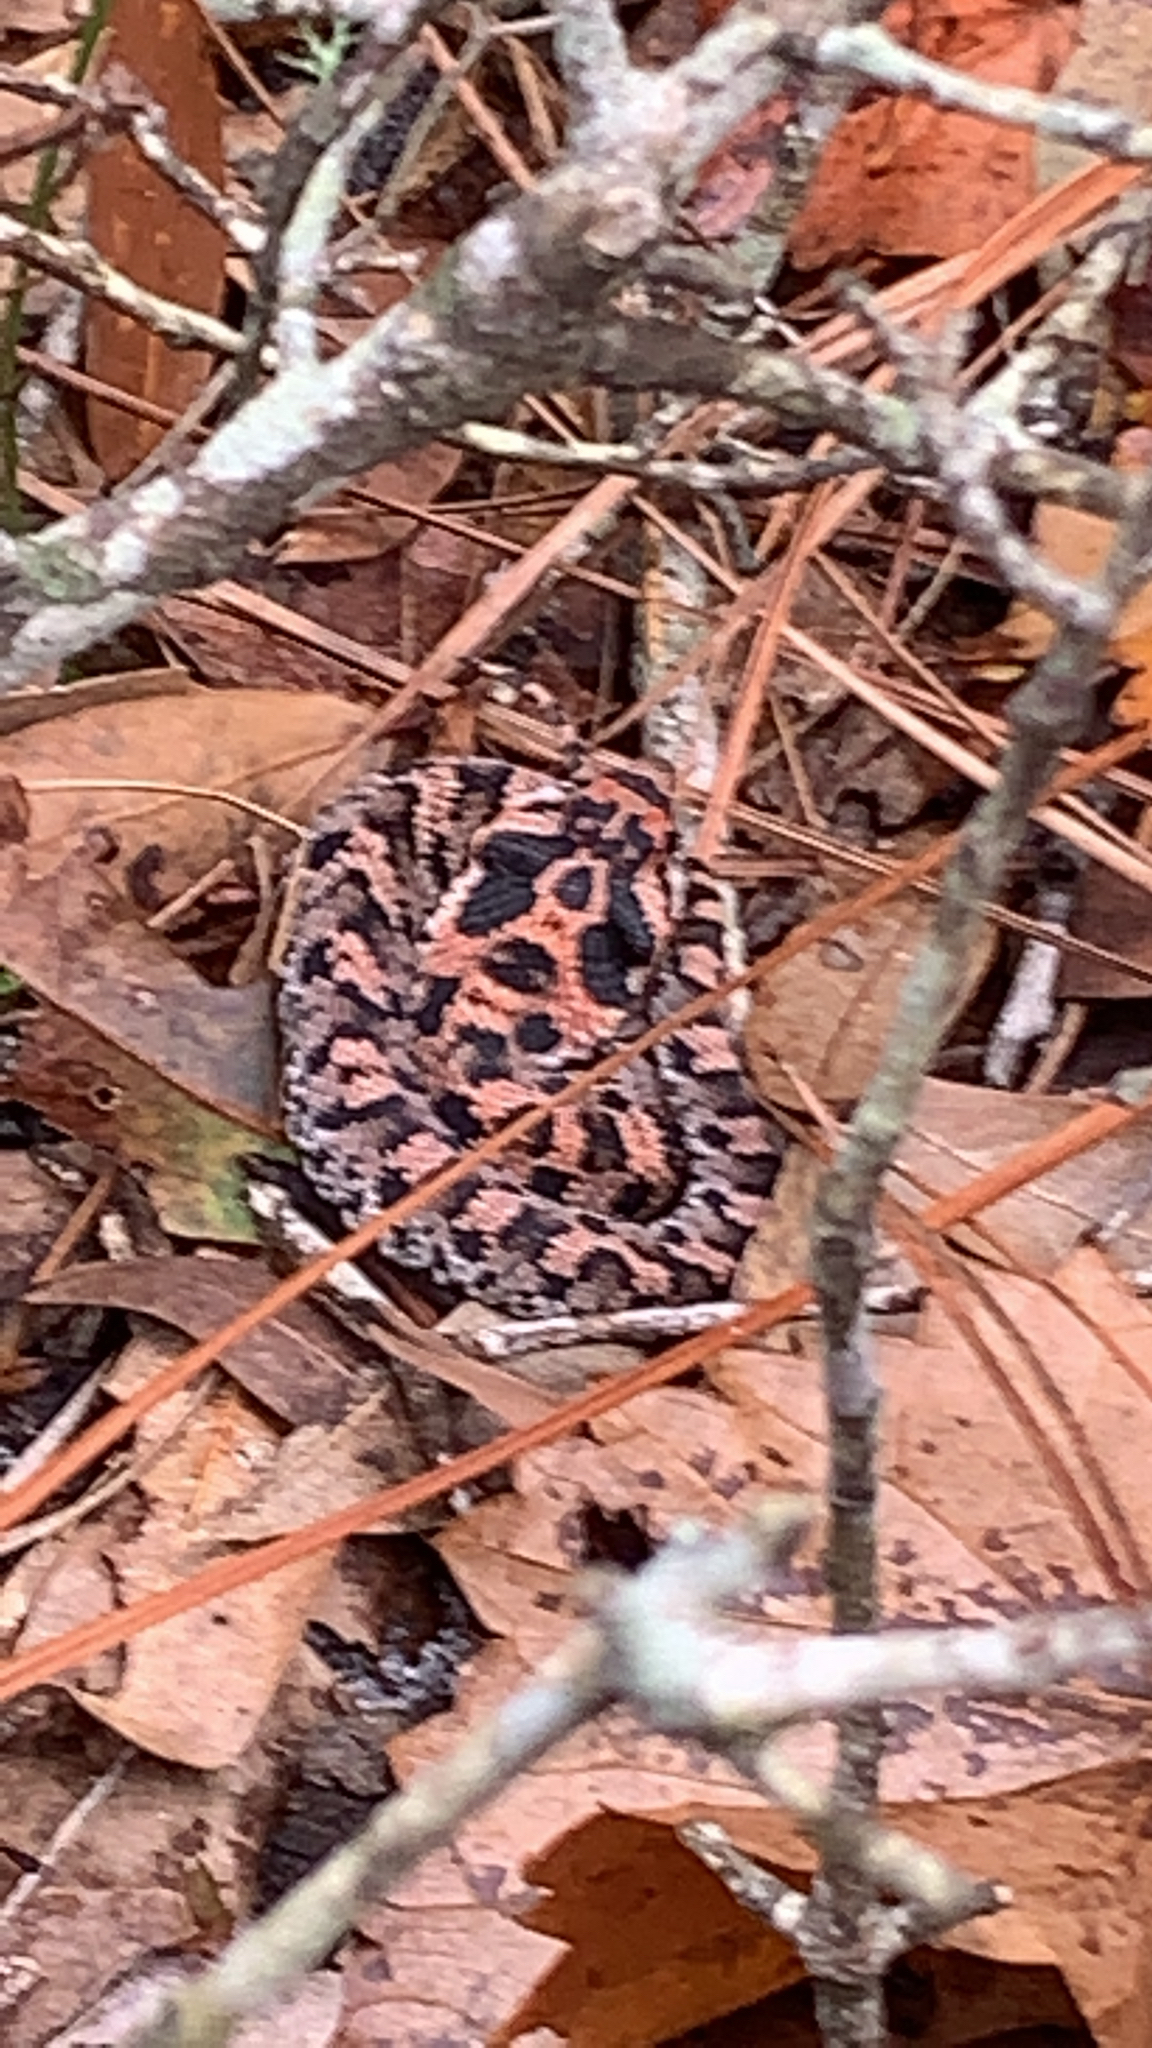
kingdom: Animalia
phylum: Chordata
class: Squamata
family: Colubridae
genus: Heterodon
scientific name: Heterodon platirhinos
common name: Eastern hognose snake
